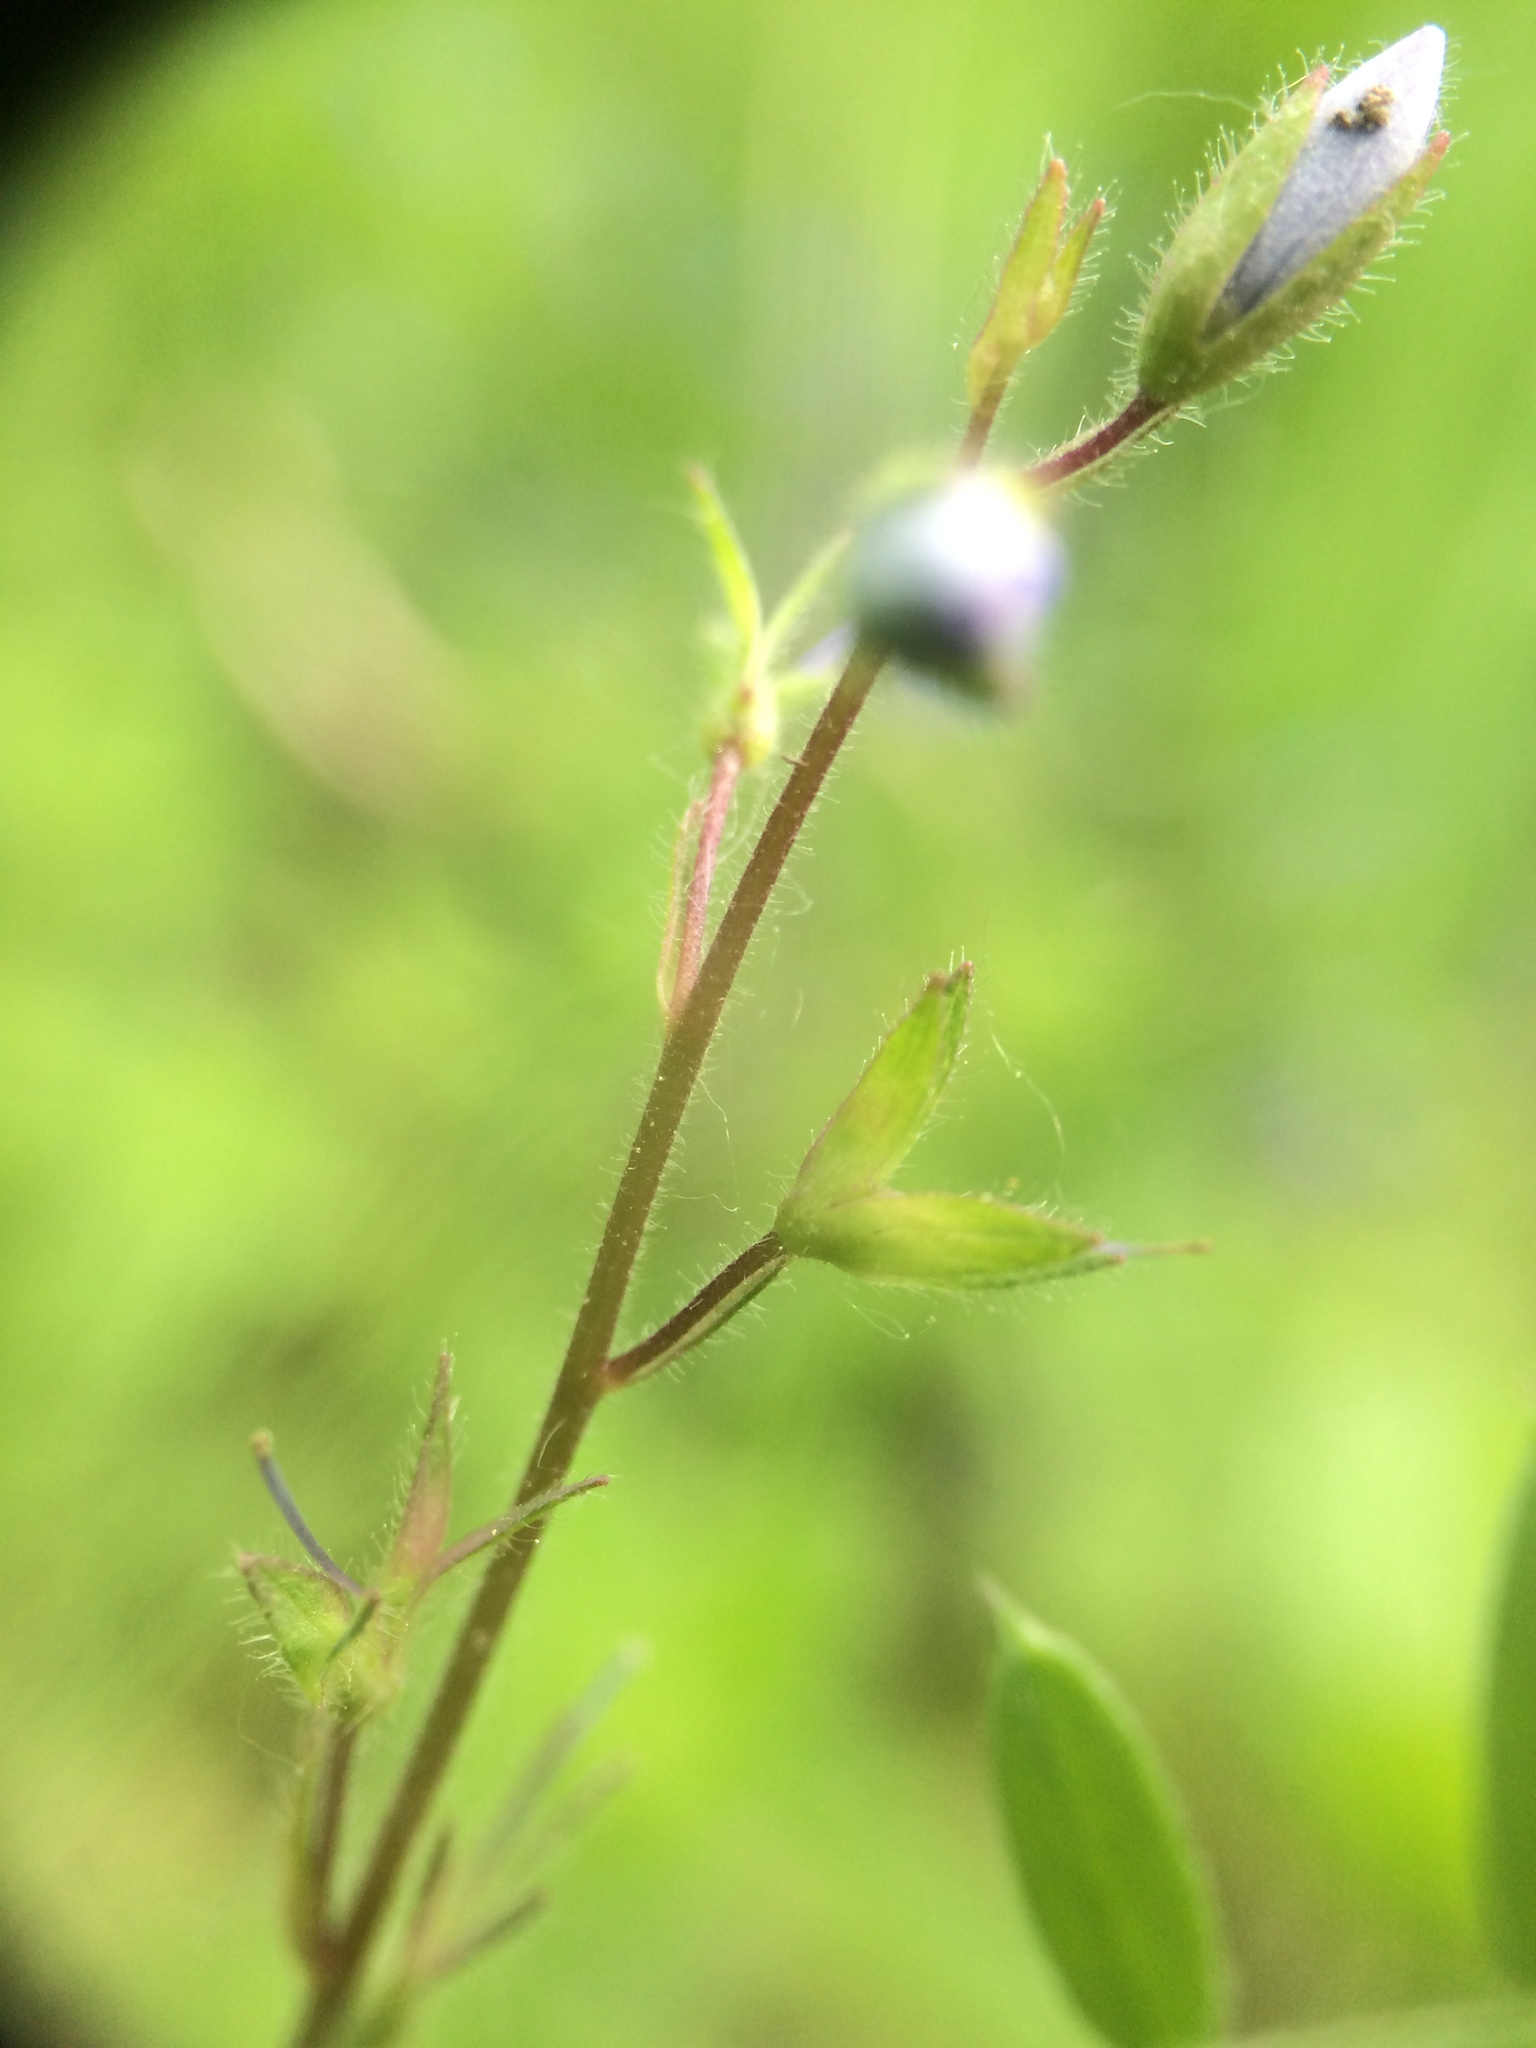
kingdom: Plantae
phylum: Tracheophyta
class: Magnoliopsida
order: Lamiales
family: Plantaginaceae
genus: Veronica
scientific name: Veronica chamaedrys
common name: Germander speedwell
